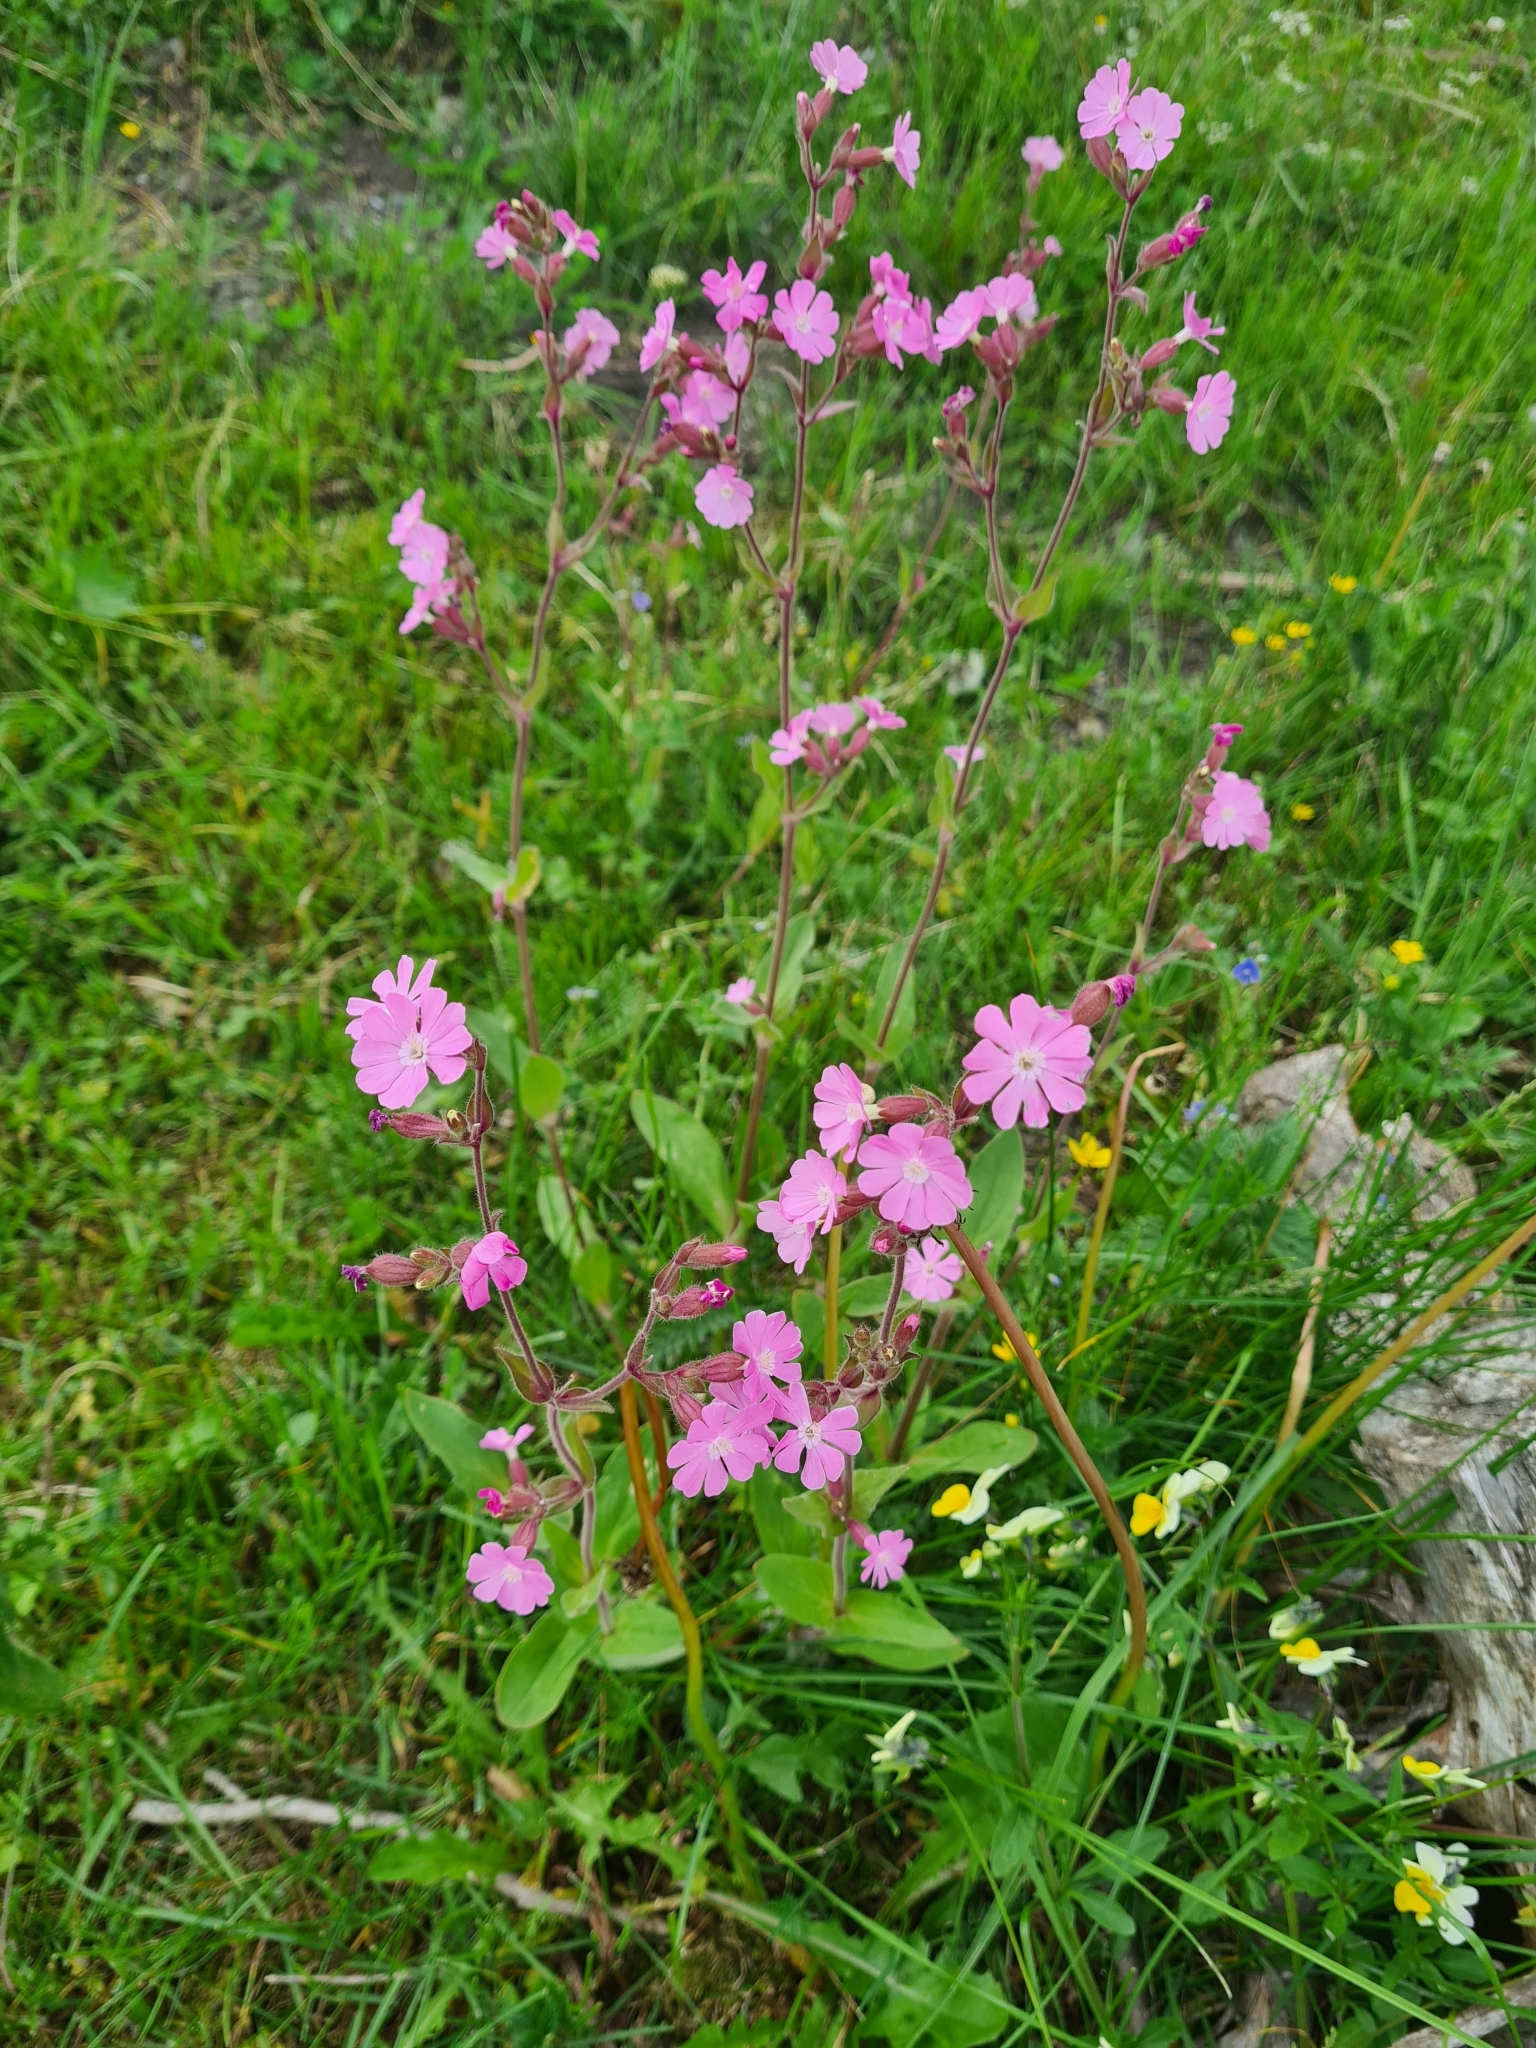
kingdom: Plantae
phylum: Tracheophyta
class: Magnoliopsida
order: Caryophyllales
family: Caryophyllaceae
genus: Silene
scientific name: Silene dioica
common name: Red campion
